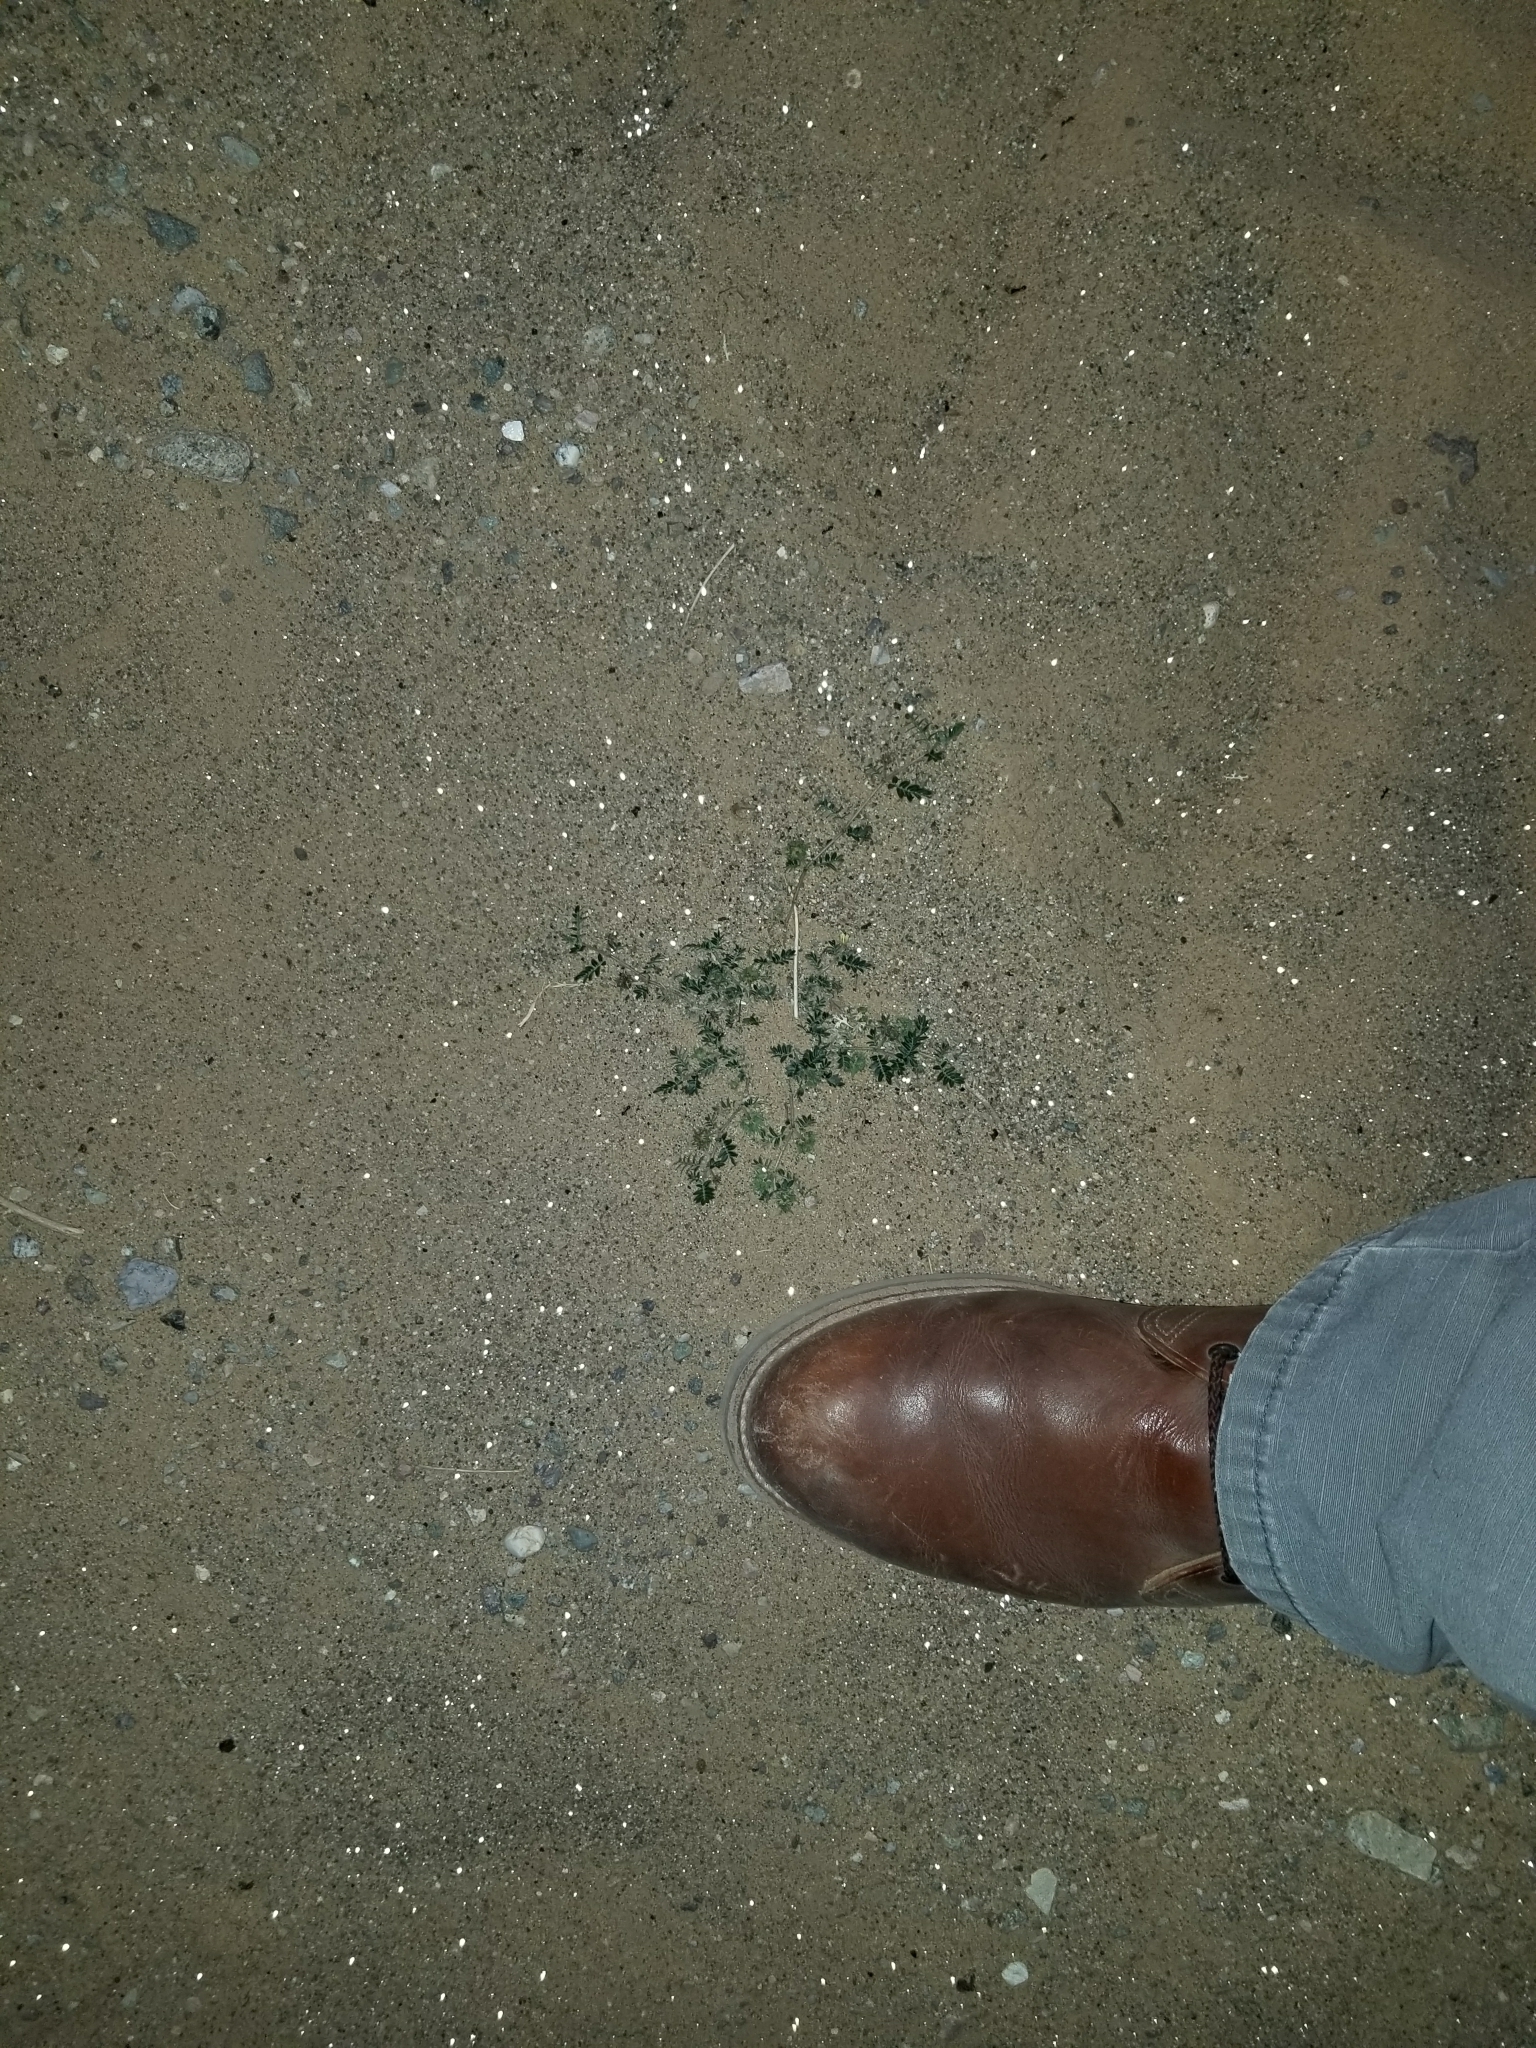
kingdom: Plantae
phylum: Tracheophyta
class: Magnoliopsida
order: Zygophyllales
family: Zygophyllaceae
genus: Tribulus
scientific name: Tribulus terrestris
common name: Puncturevine
